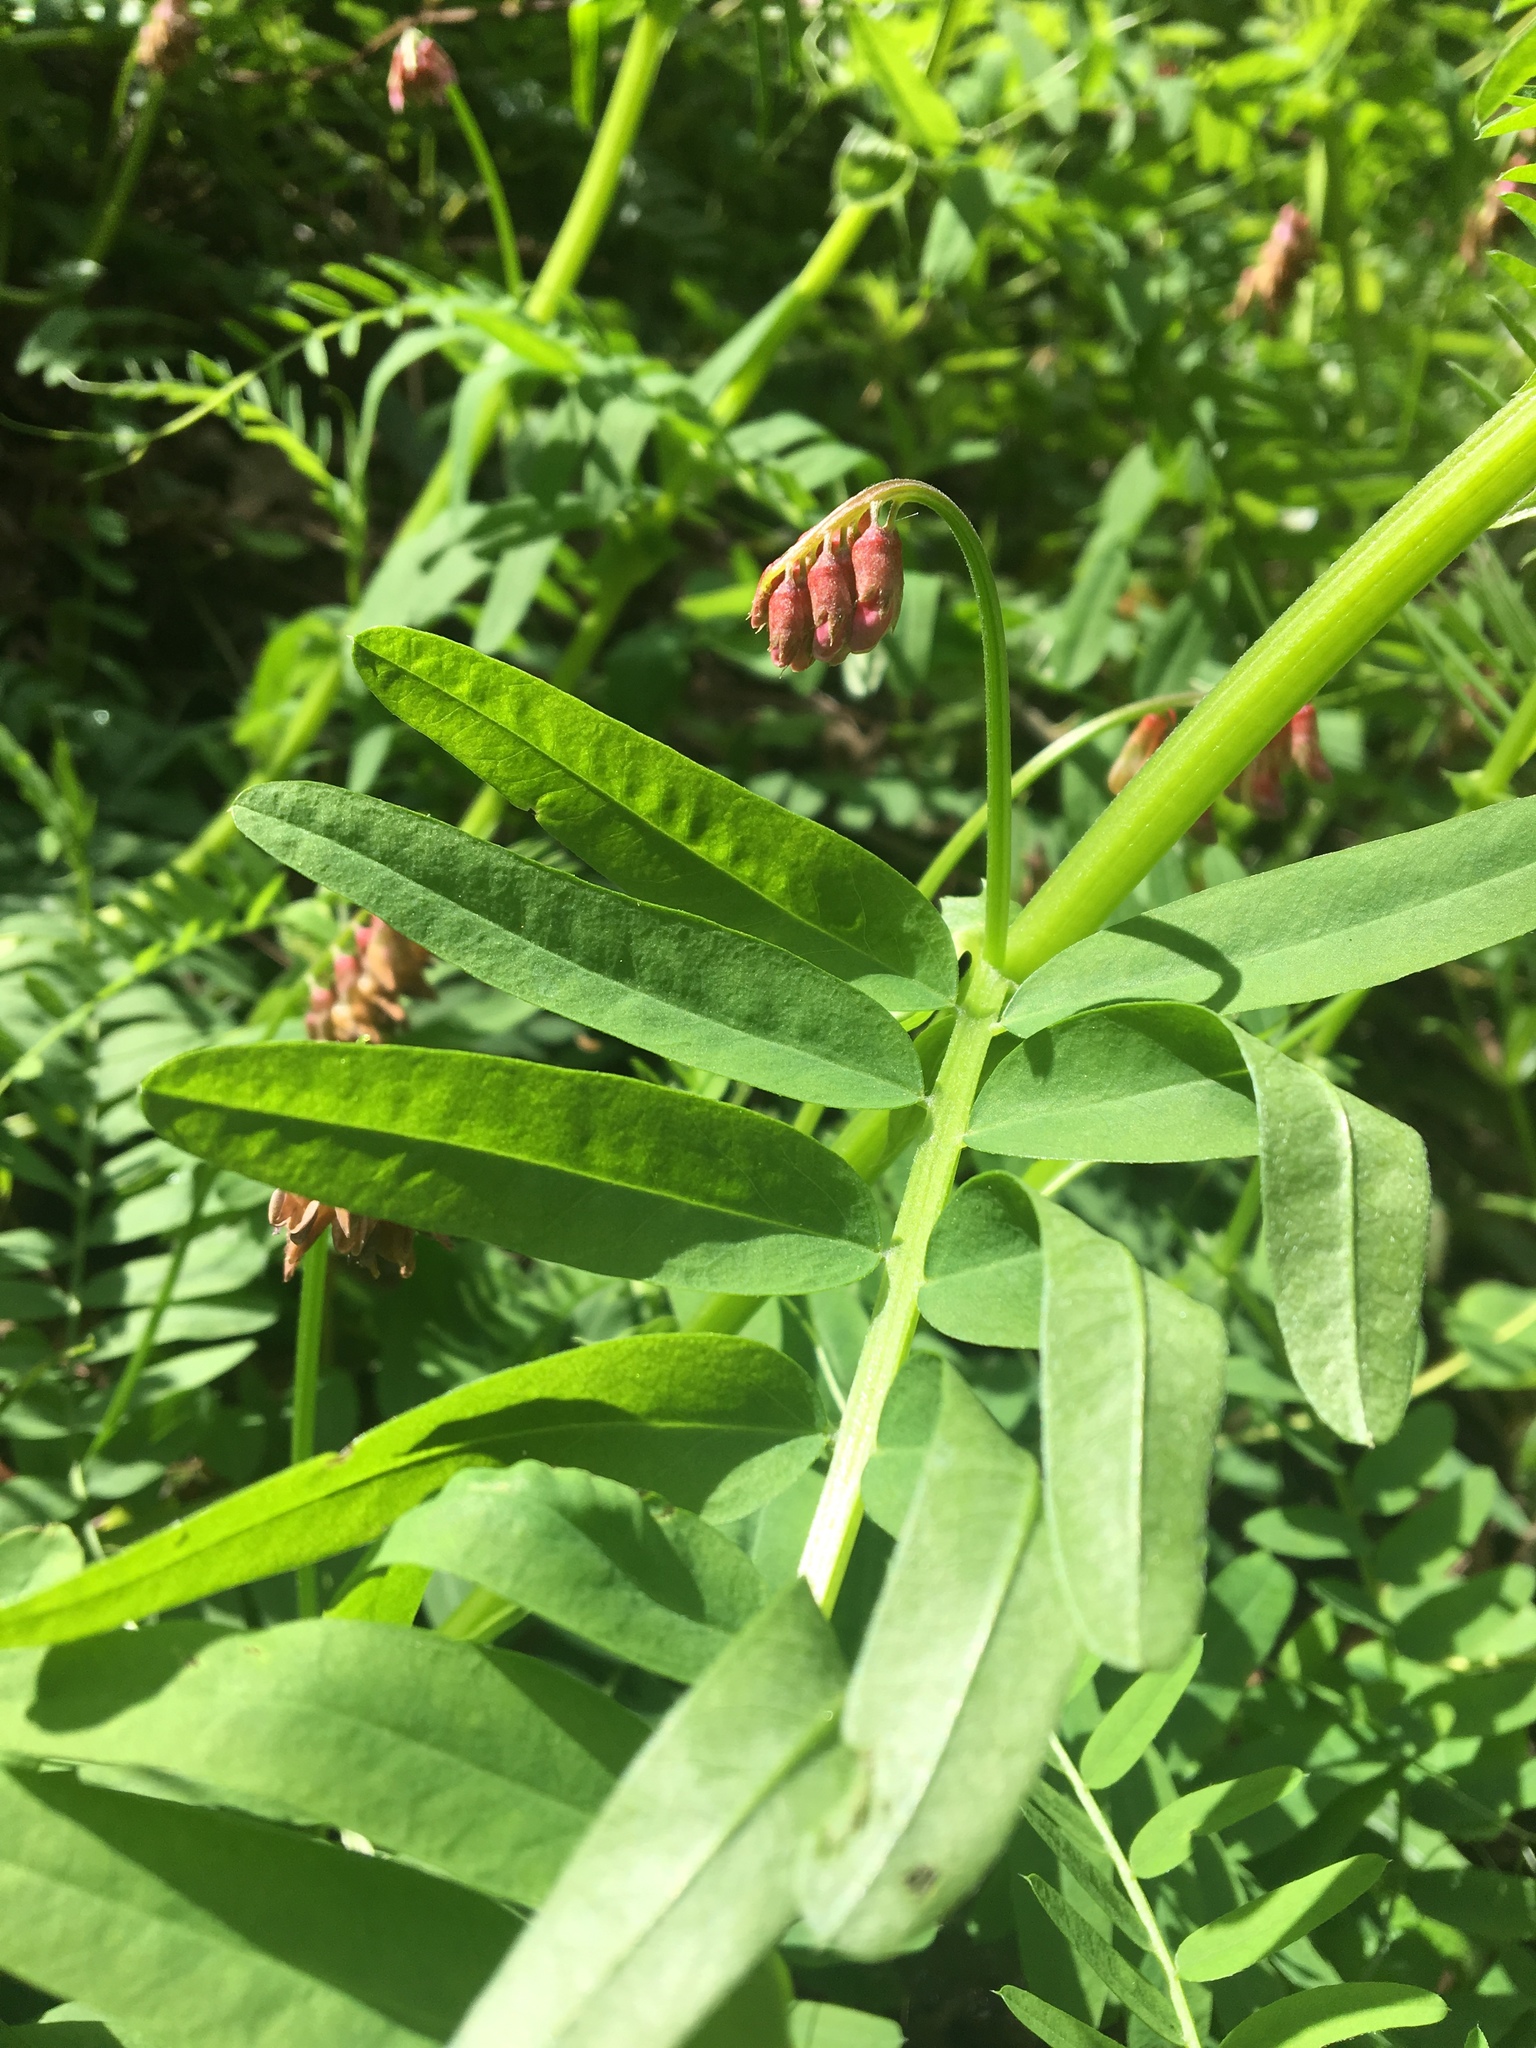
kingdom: Plantae
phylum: Tracheophyta
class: Magnoliopsida
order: Fabales
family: Fabaceae
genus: Vicia
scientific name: Vicia
